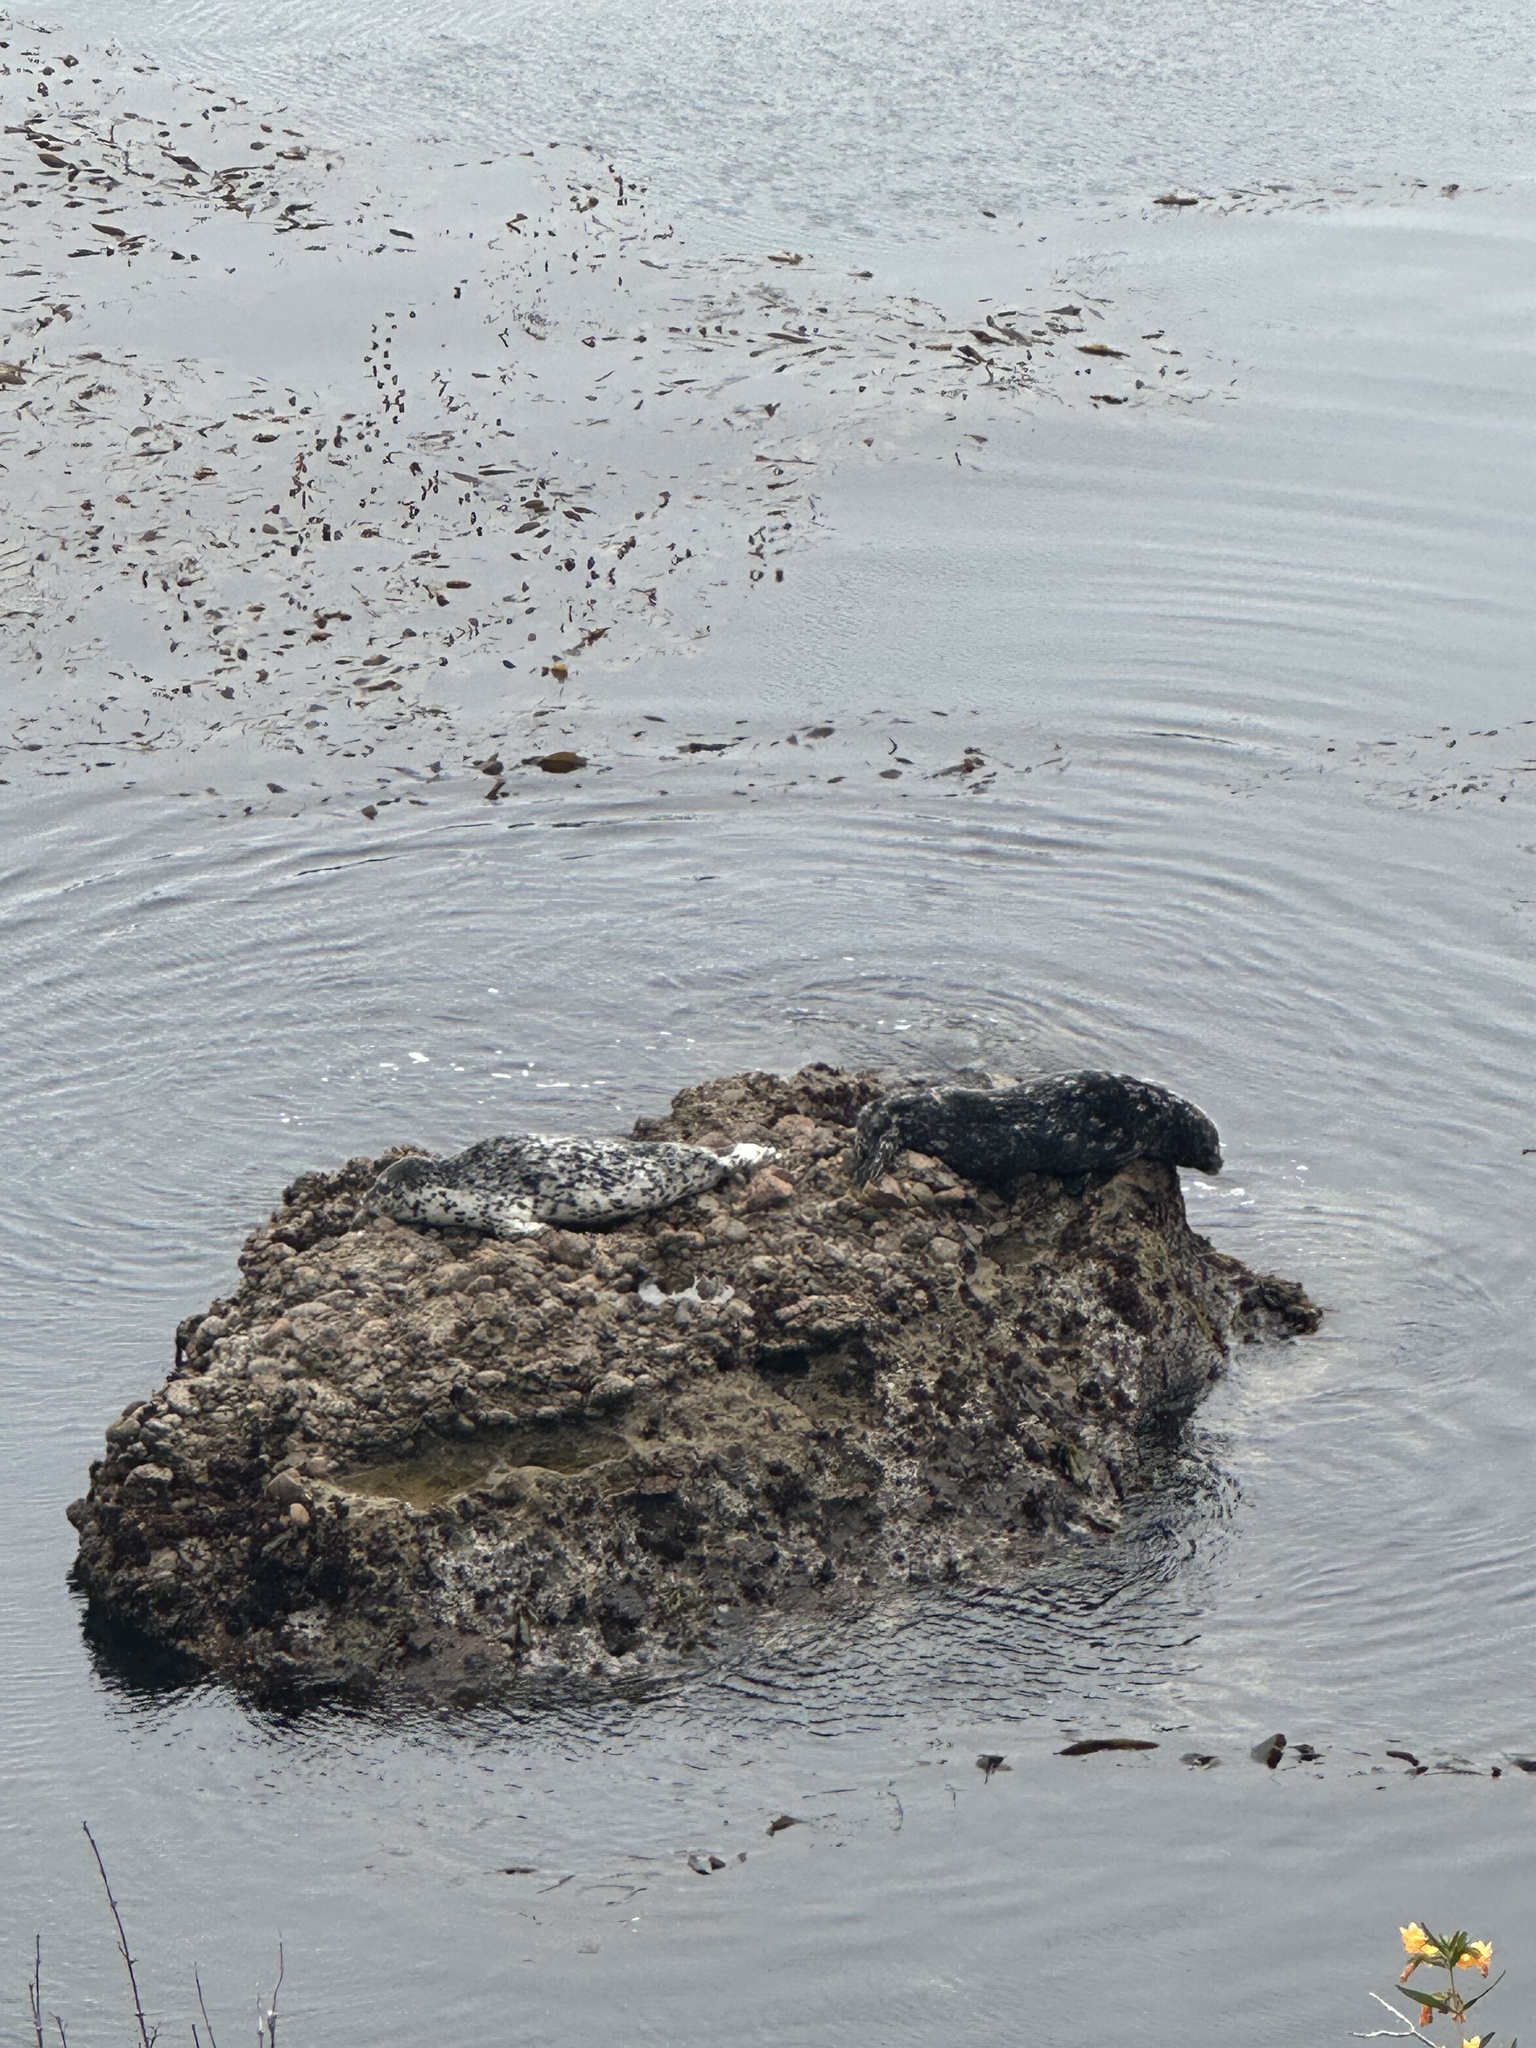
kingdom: Animalia
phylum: Chordata
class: Mammalia
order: Carnivora
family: Phocidae
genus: Phoca
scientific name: Phoca vitulina
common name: Harbor seal
